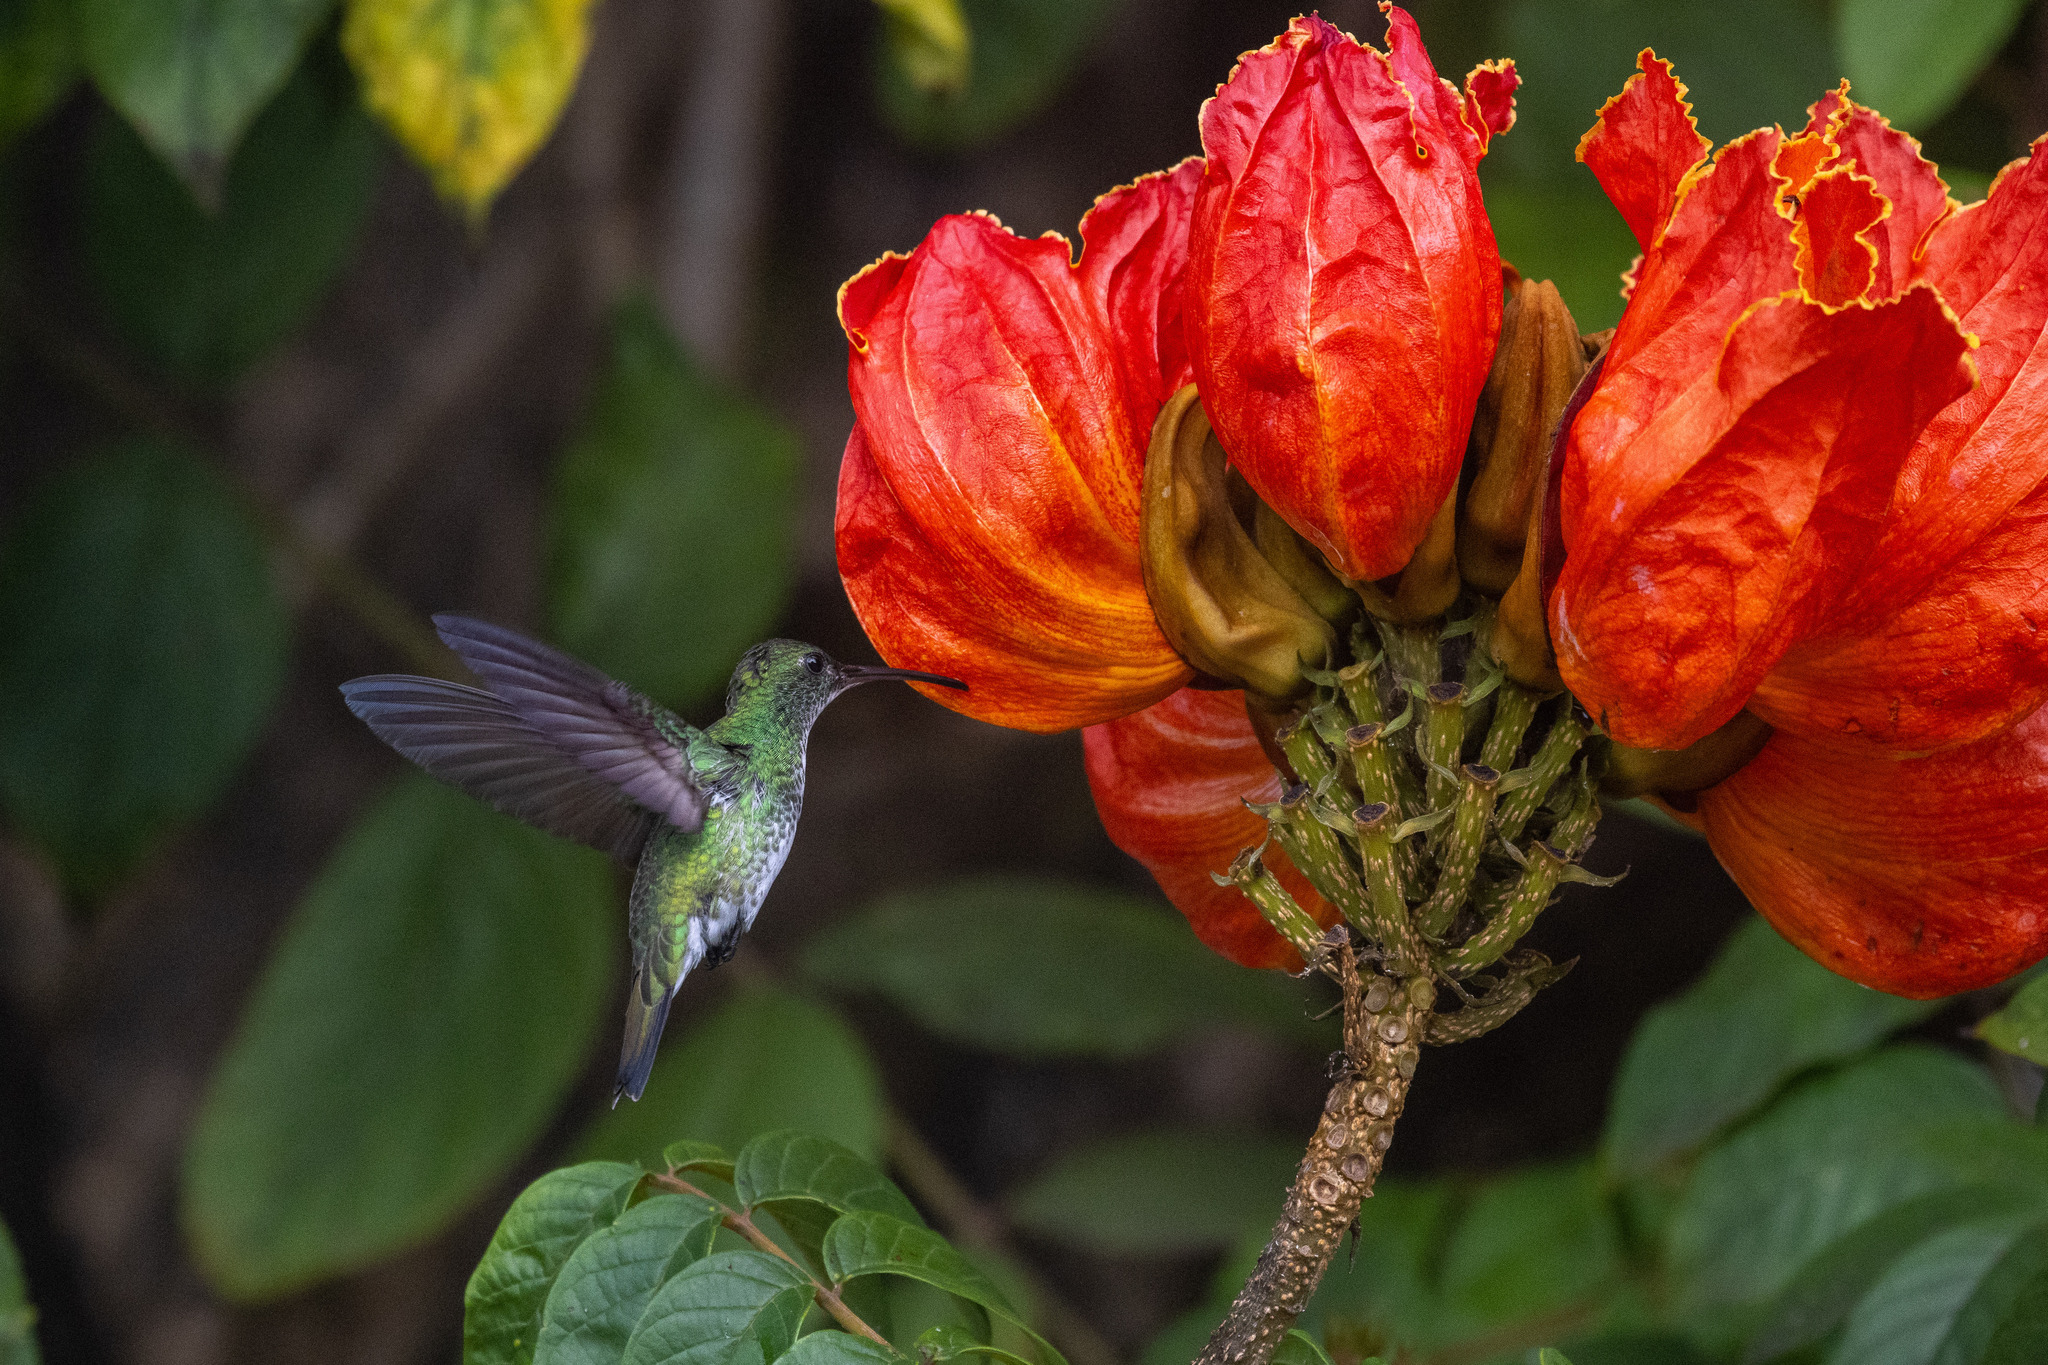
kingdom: Animalia
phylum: Chordata
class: Aves
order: Apodiformes
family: Trochilidae
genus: Chrysuronia
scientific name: Chrysuronia leucogaster
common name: Plain-bellied emerald
